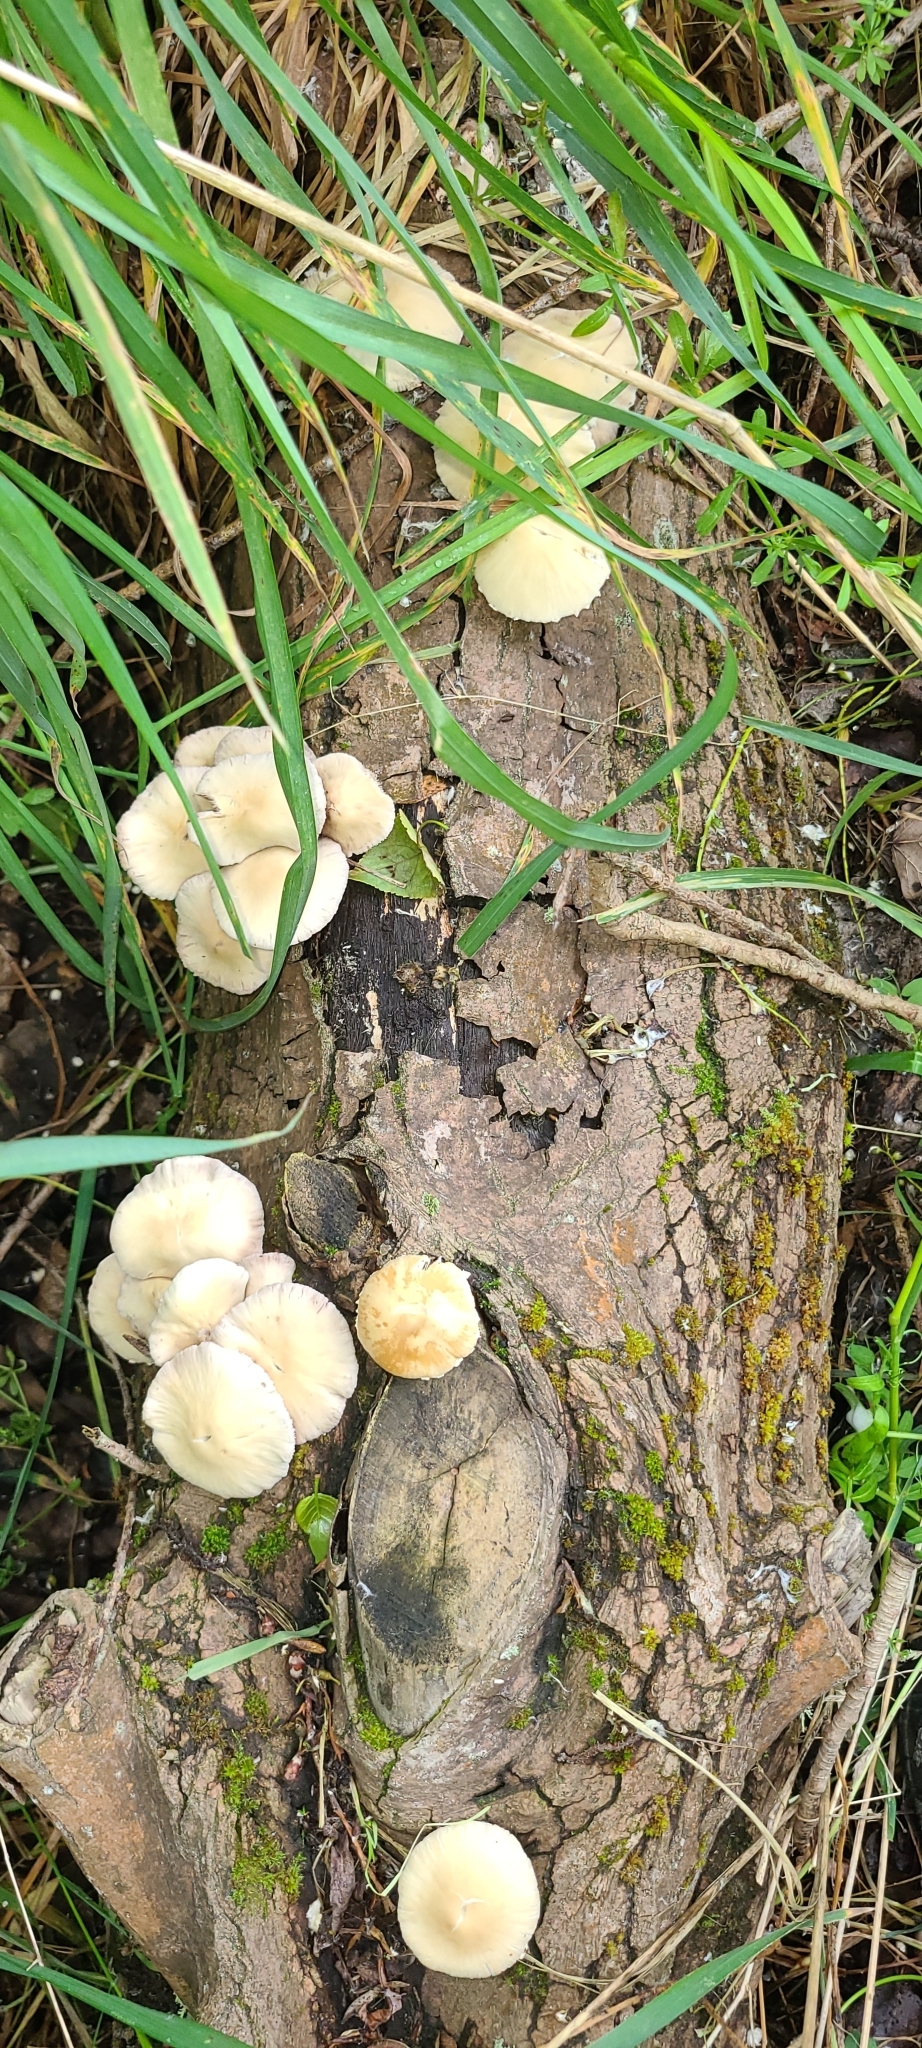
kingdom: Fungi
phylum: Basidiomycota
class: Agaricomycetes
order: Agaricales
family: Psathyrellaceae
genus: Candolleomyces
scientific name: Candolleomyces candolleanus
